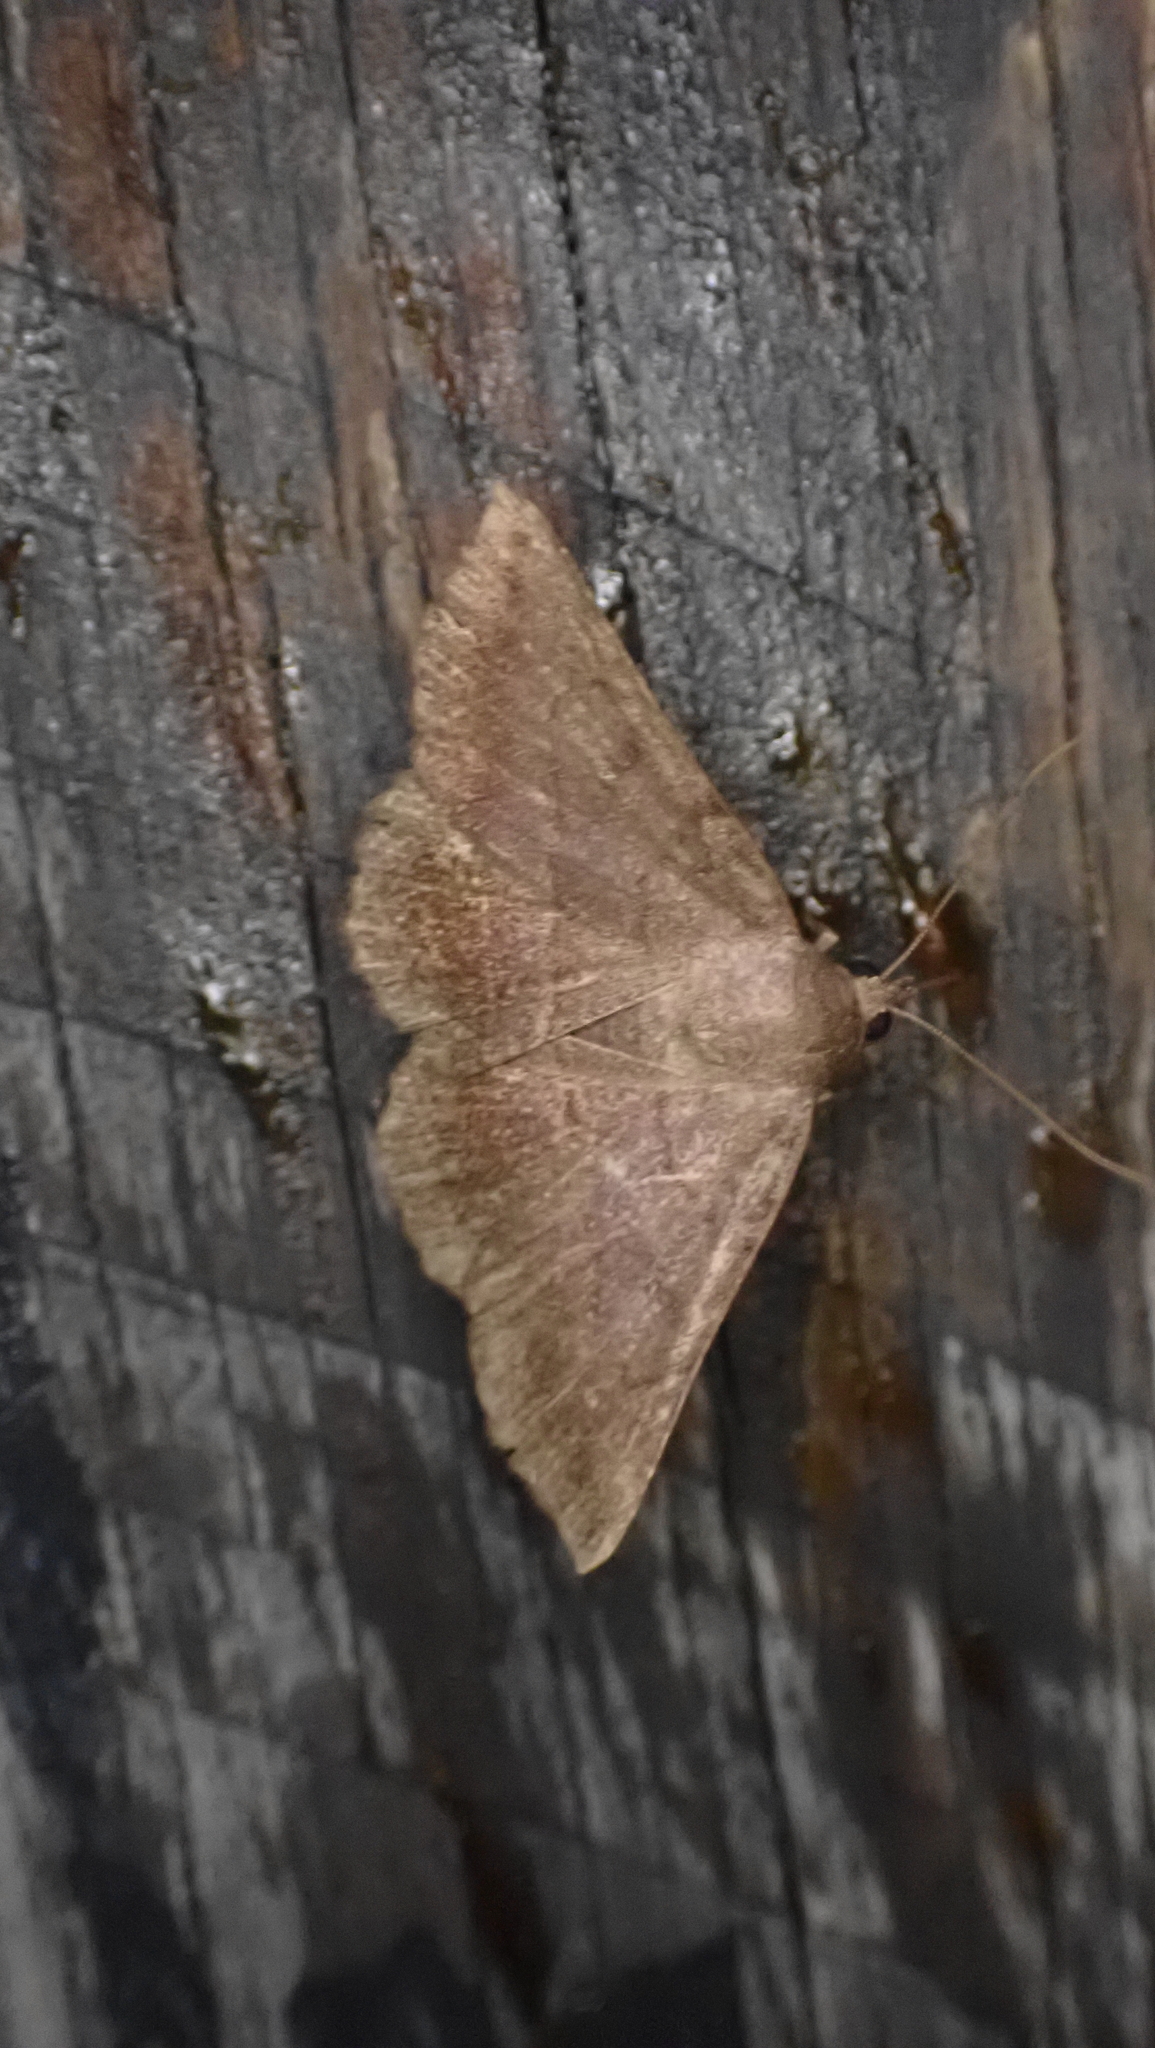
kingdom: Animalia
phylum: Arthropoda
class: Insecta
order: Lepidoptera
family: Erebidae
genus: Lesmone
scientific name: Lesmone detrahens
